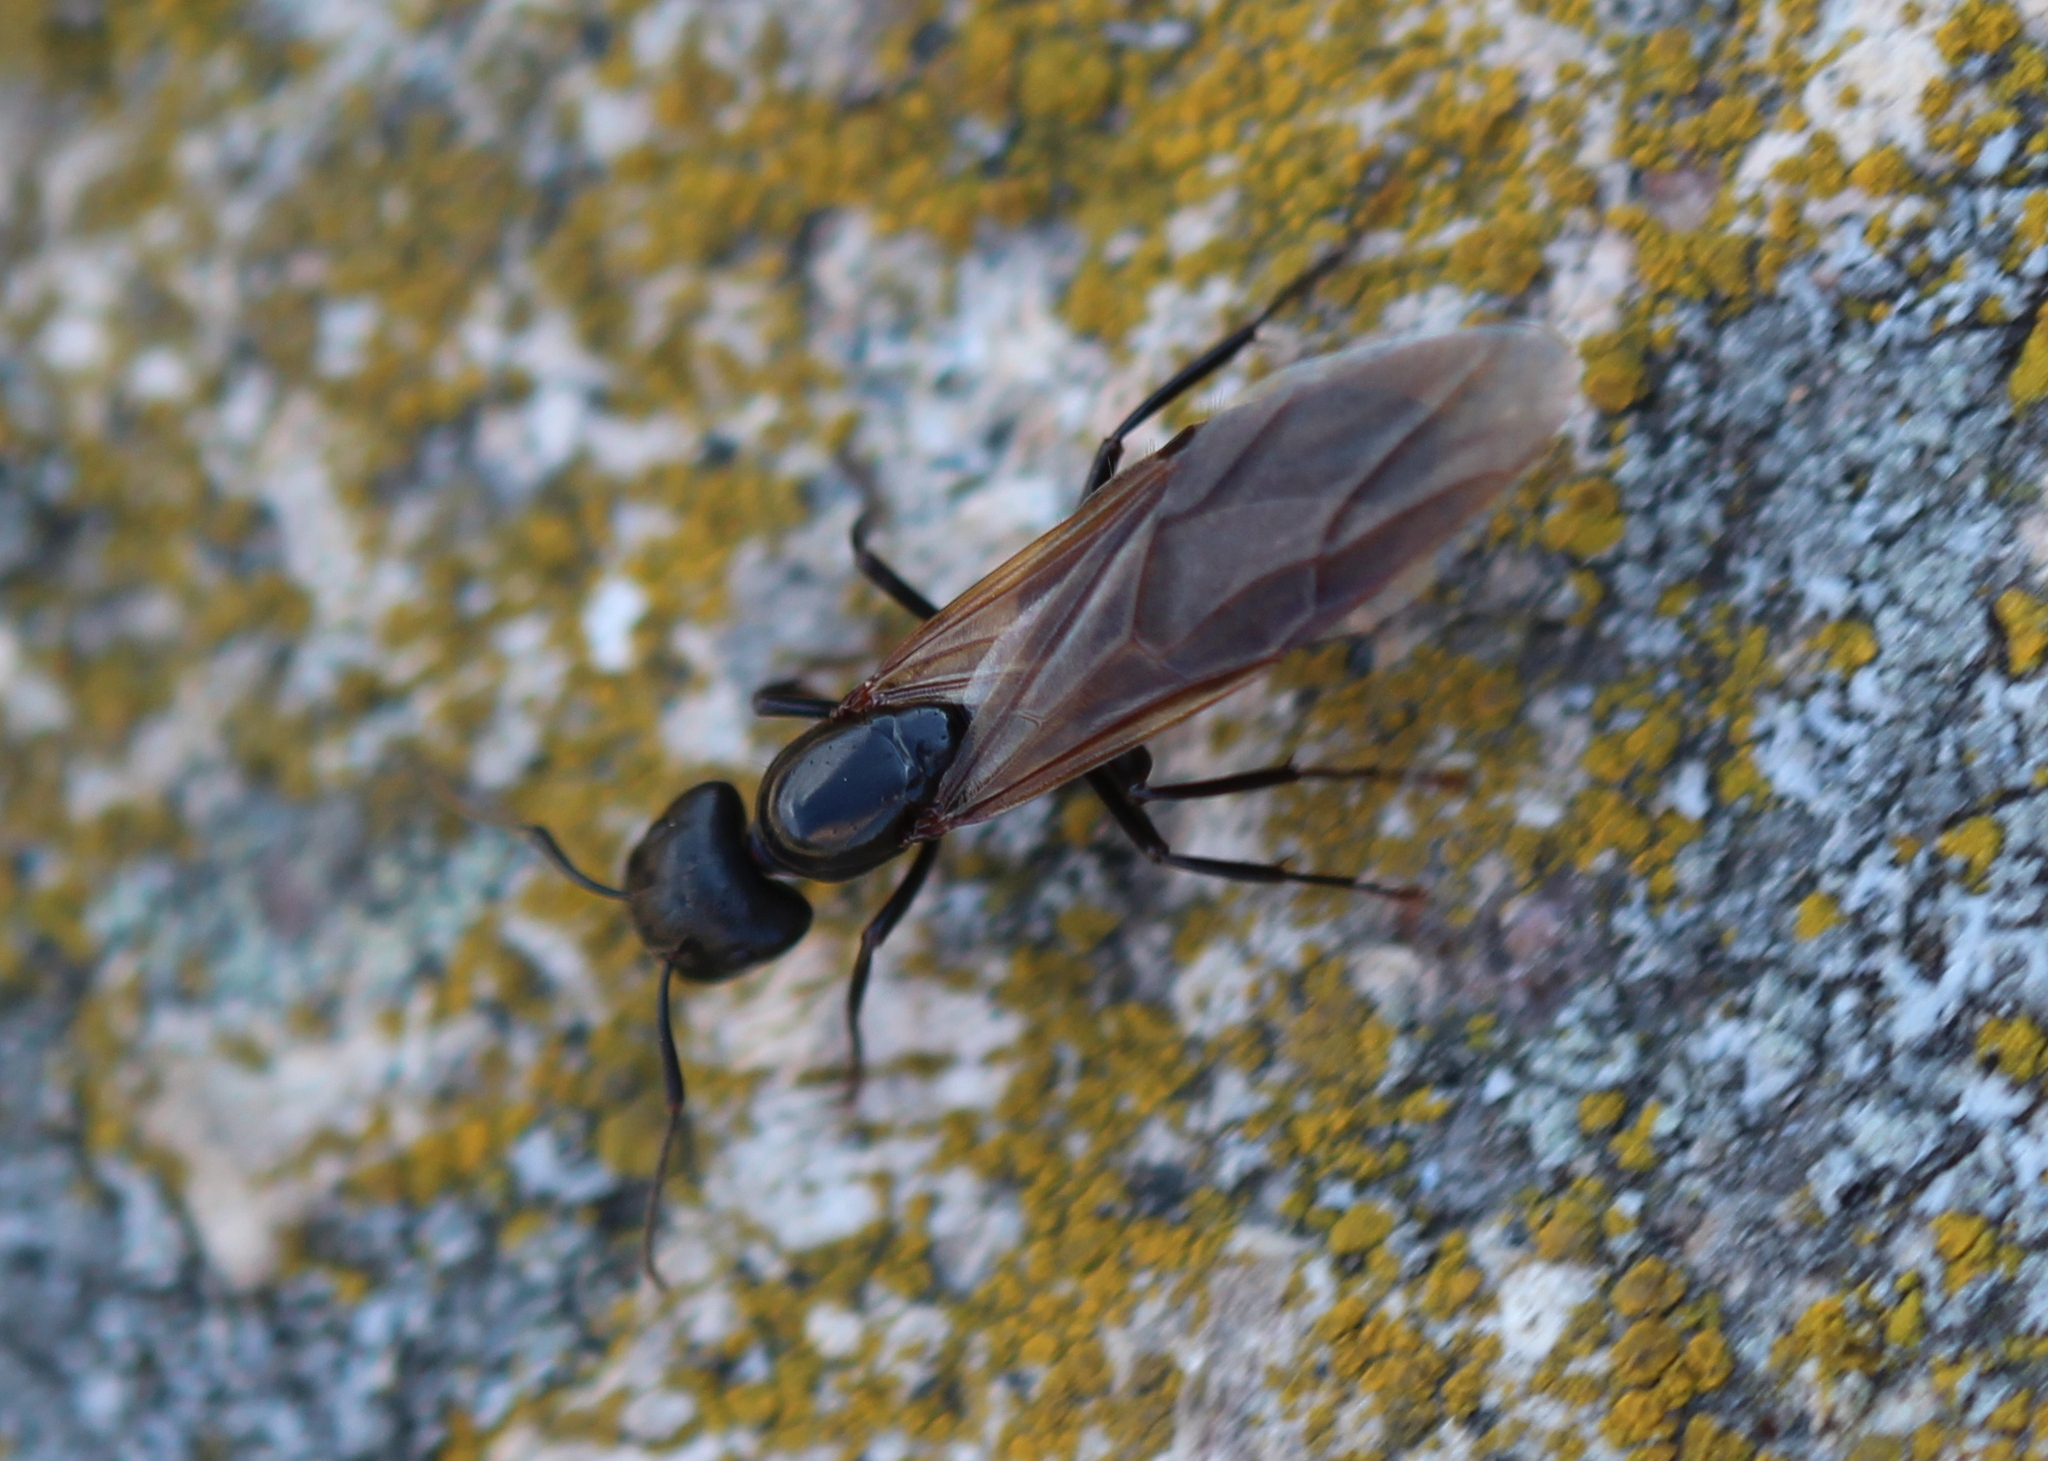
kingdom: Animalia
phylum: Arthropoda
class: Insecta
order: Hymenoptera
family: Formicidae
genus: Camponotus
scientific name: Camponotus pennsylvanicus
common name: Black carpenter ant
